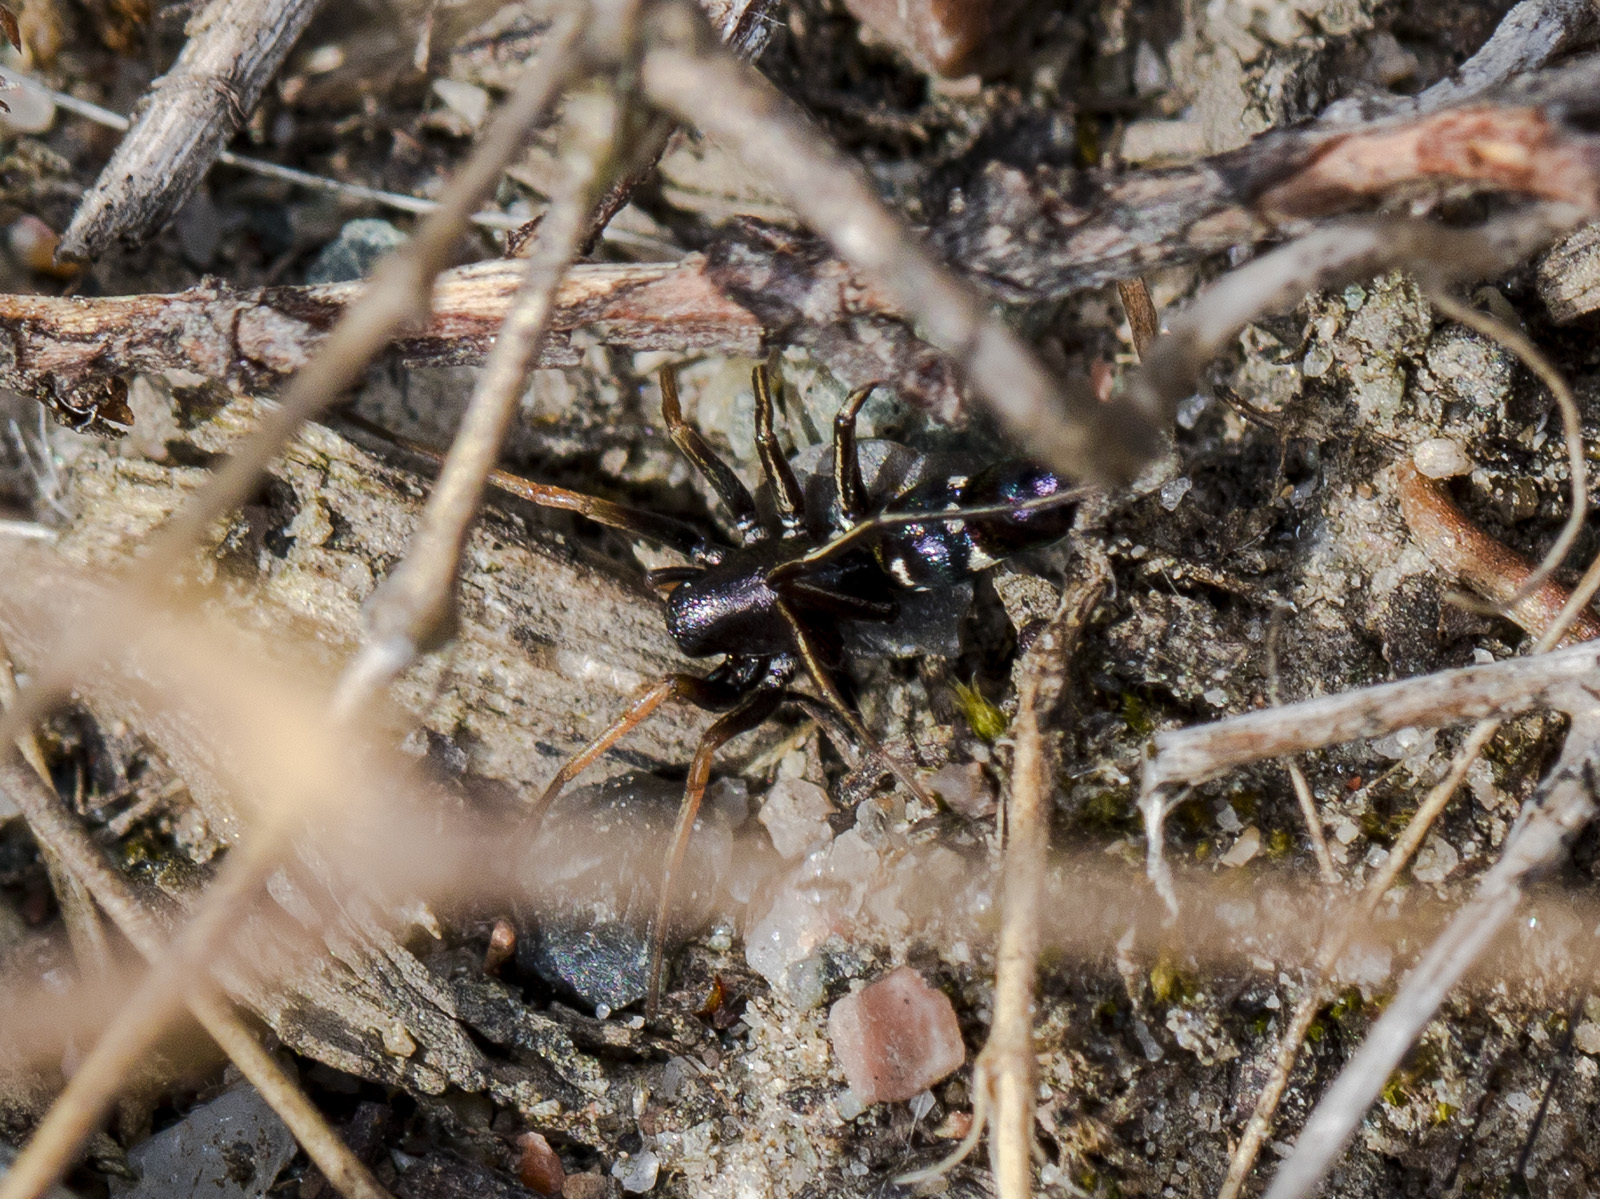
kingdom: Animalia
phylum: Arthropoda
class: Arachnida
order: Araneae
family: Gnaphosidae
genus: Micaria
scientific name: Micaria rossica
